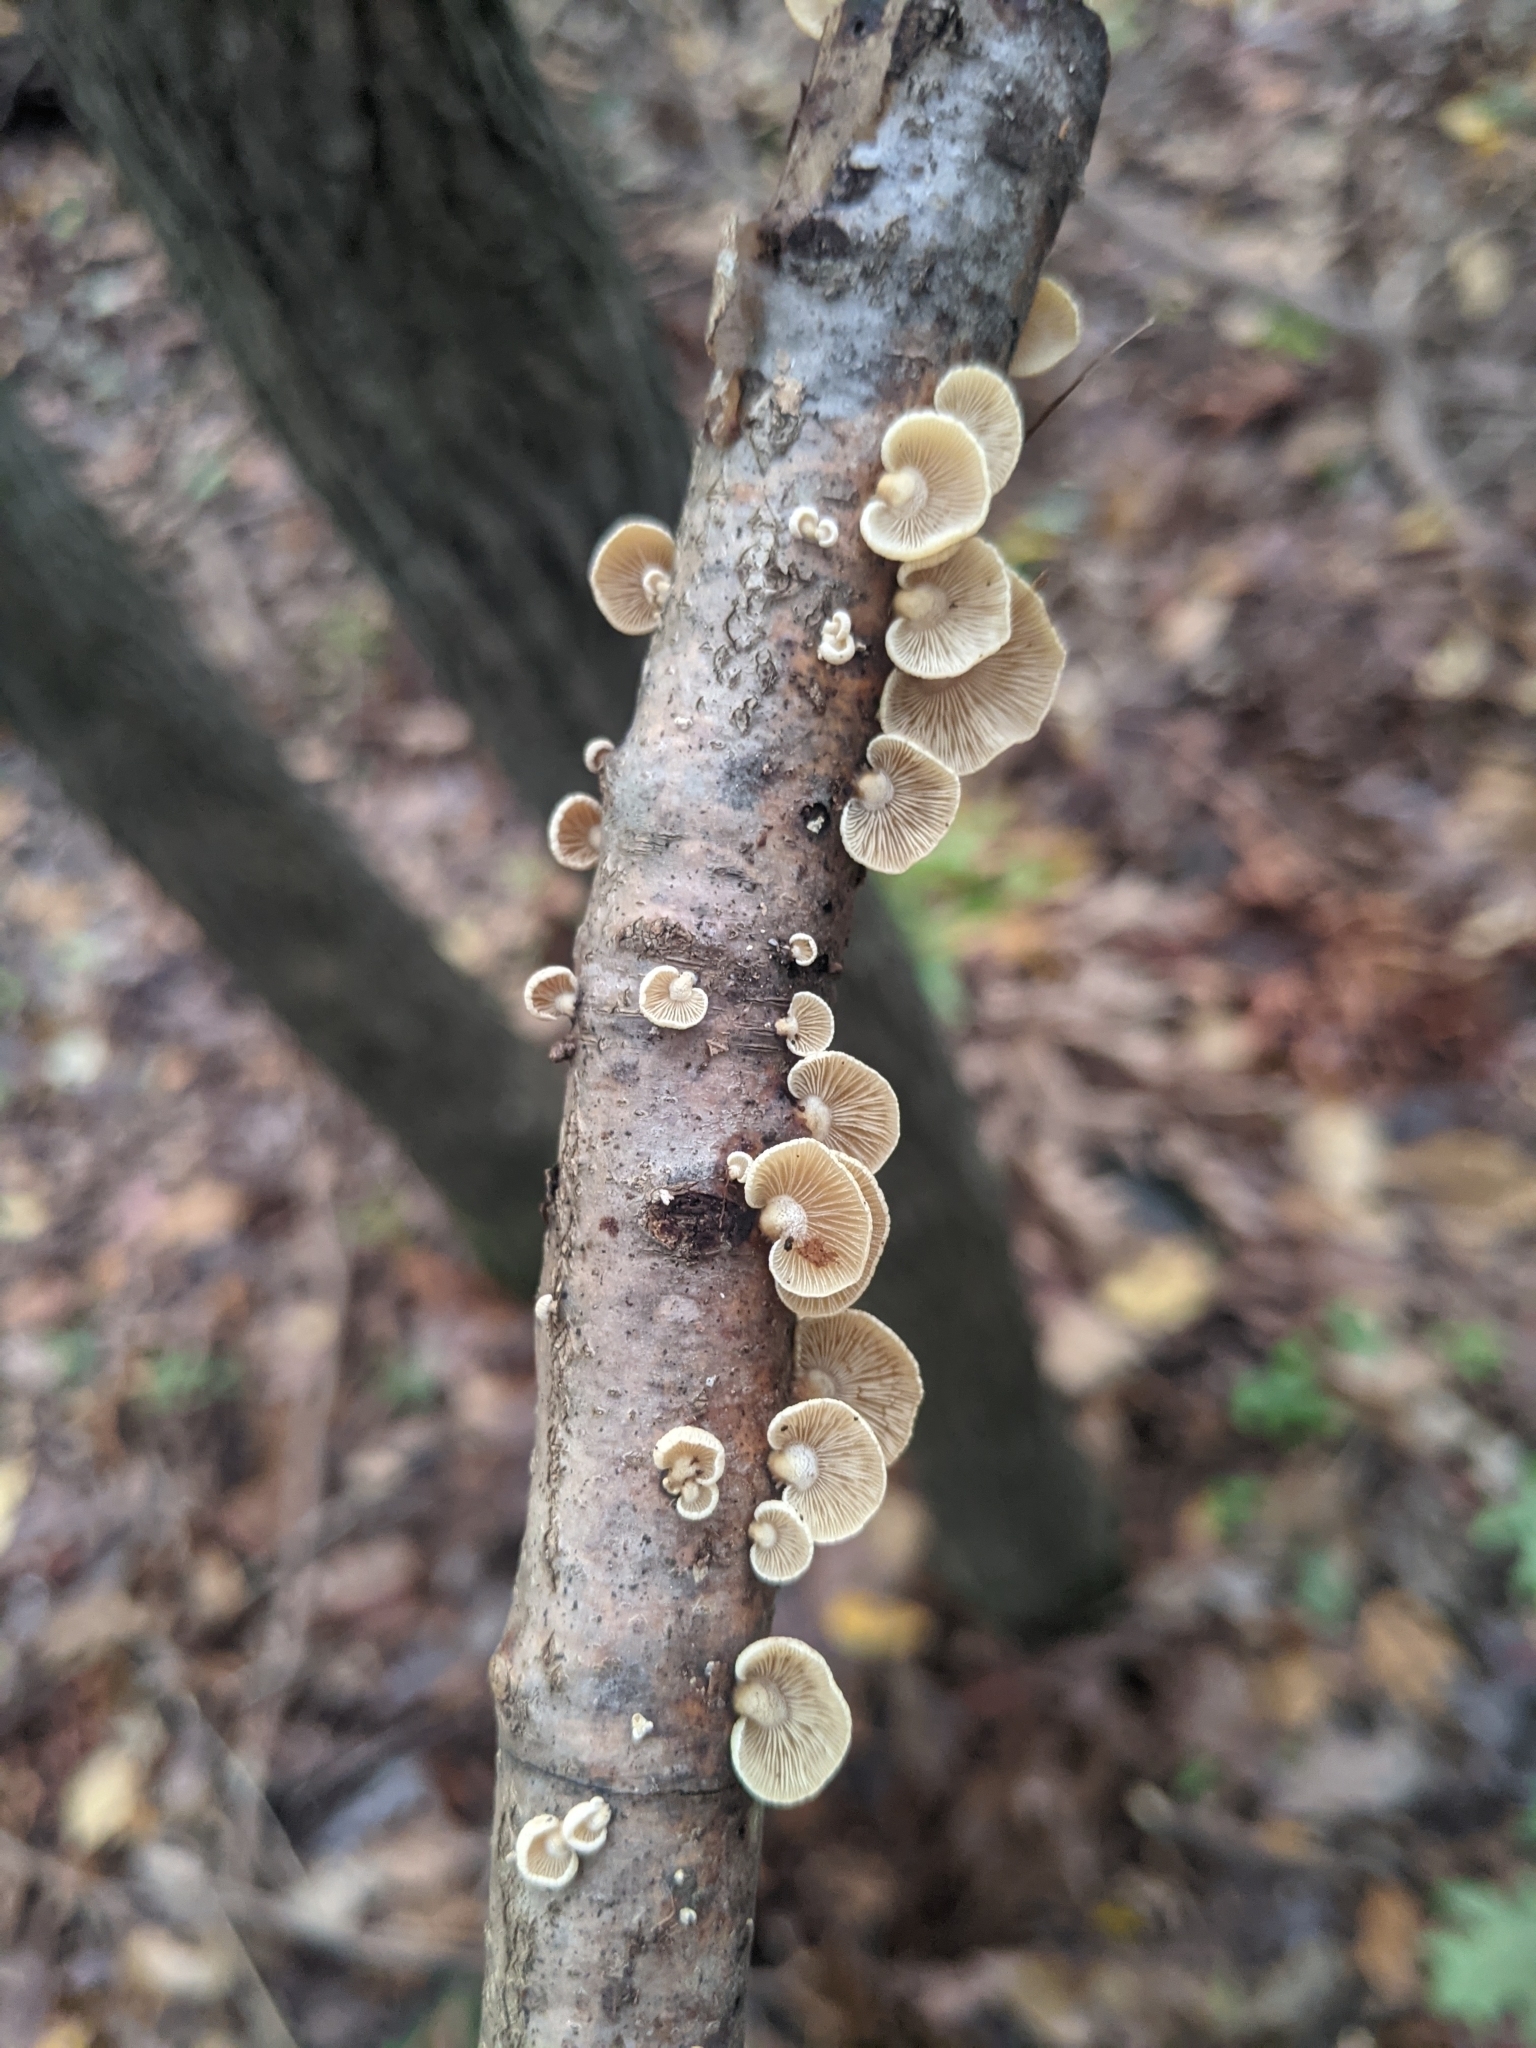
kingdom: Fungi
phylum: Basidiomycota
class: Agaricomycetes
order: Agaricales
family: Mycenaceae
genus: Panellus
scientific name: Panellus stipticus
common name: Bitter oysterling
